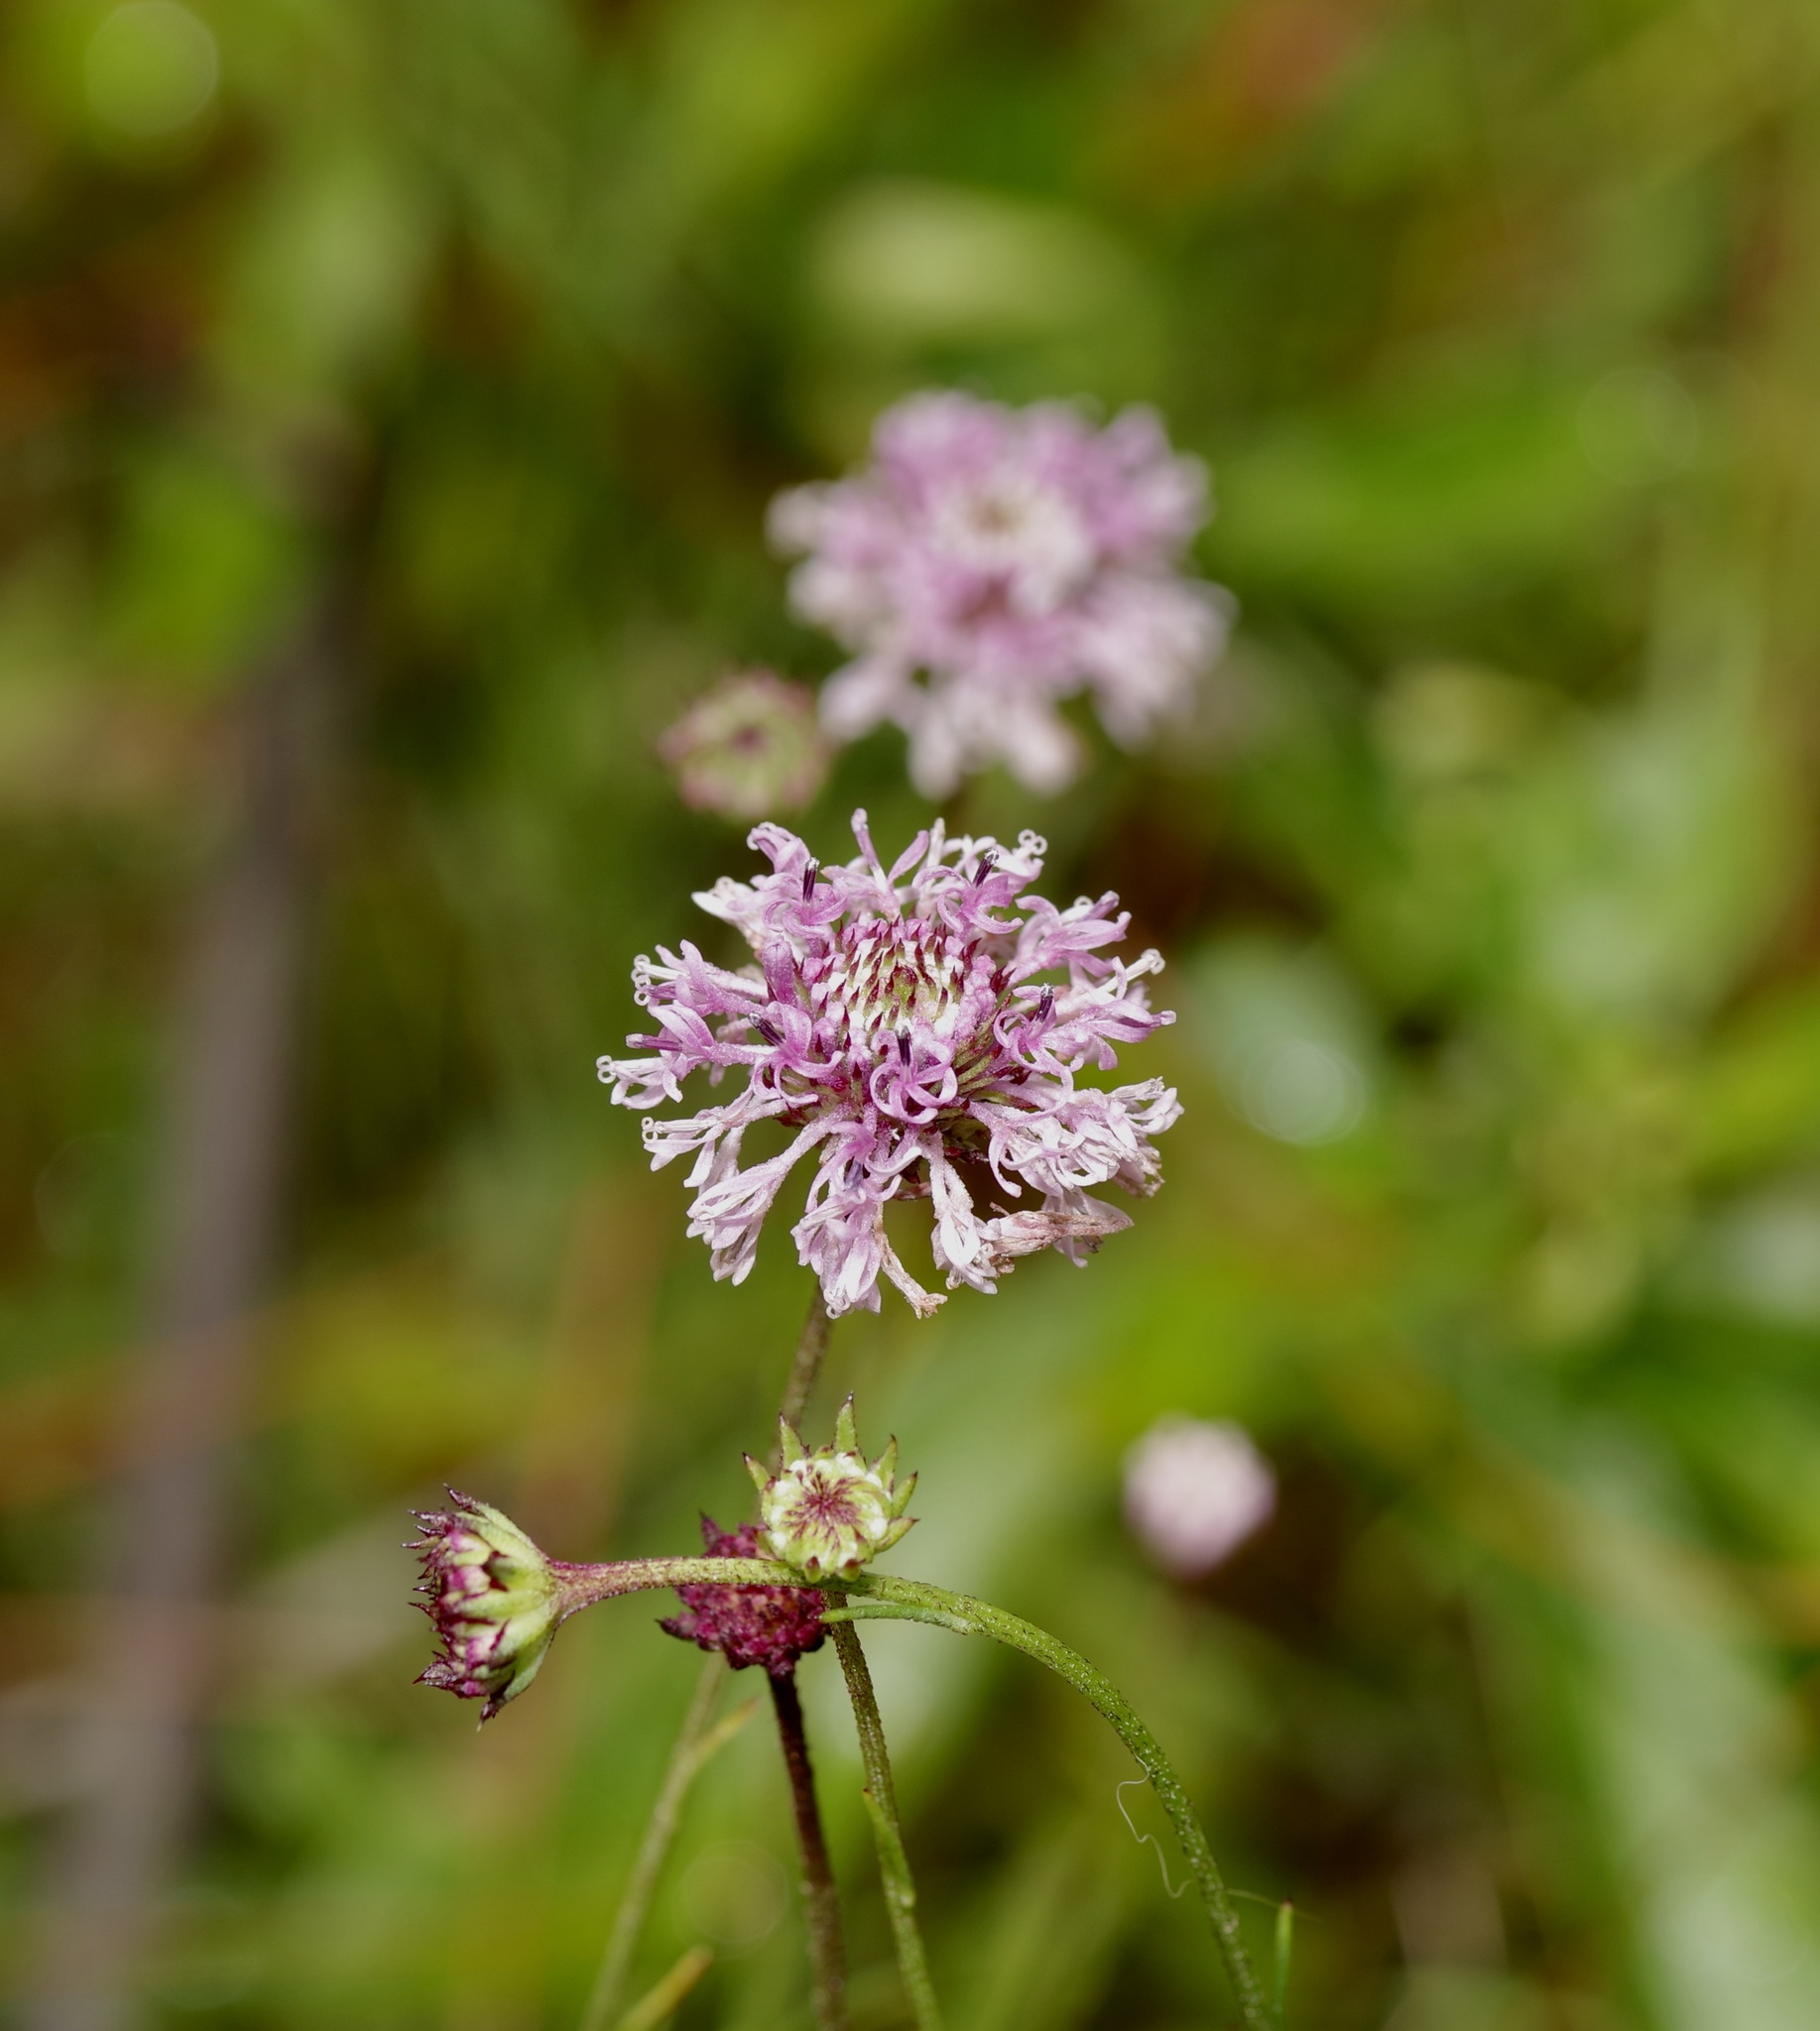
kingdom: Plantae
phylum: Tracheophyta
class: Magnoliopsida
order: Asterales
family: Asteraceae
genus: Marshallia
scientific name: Marshallia graminifolia
